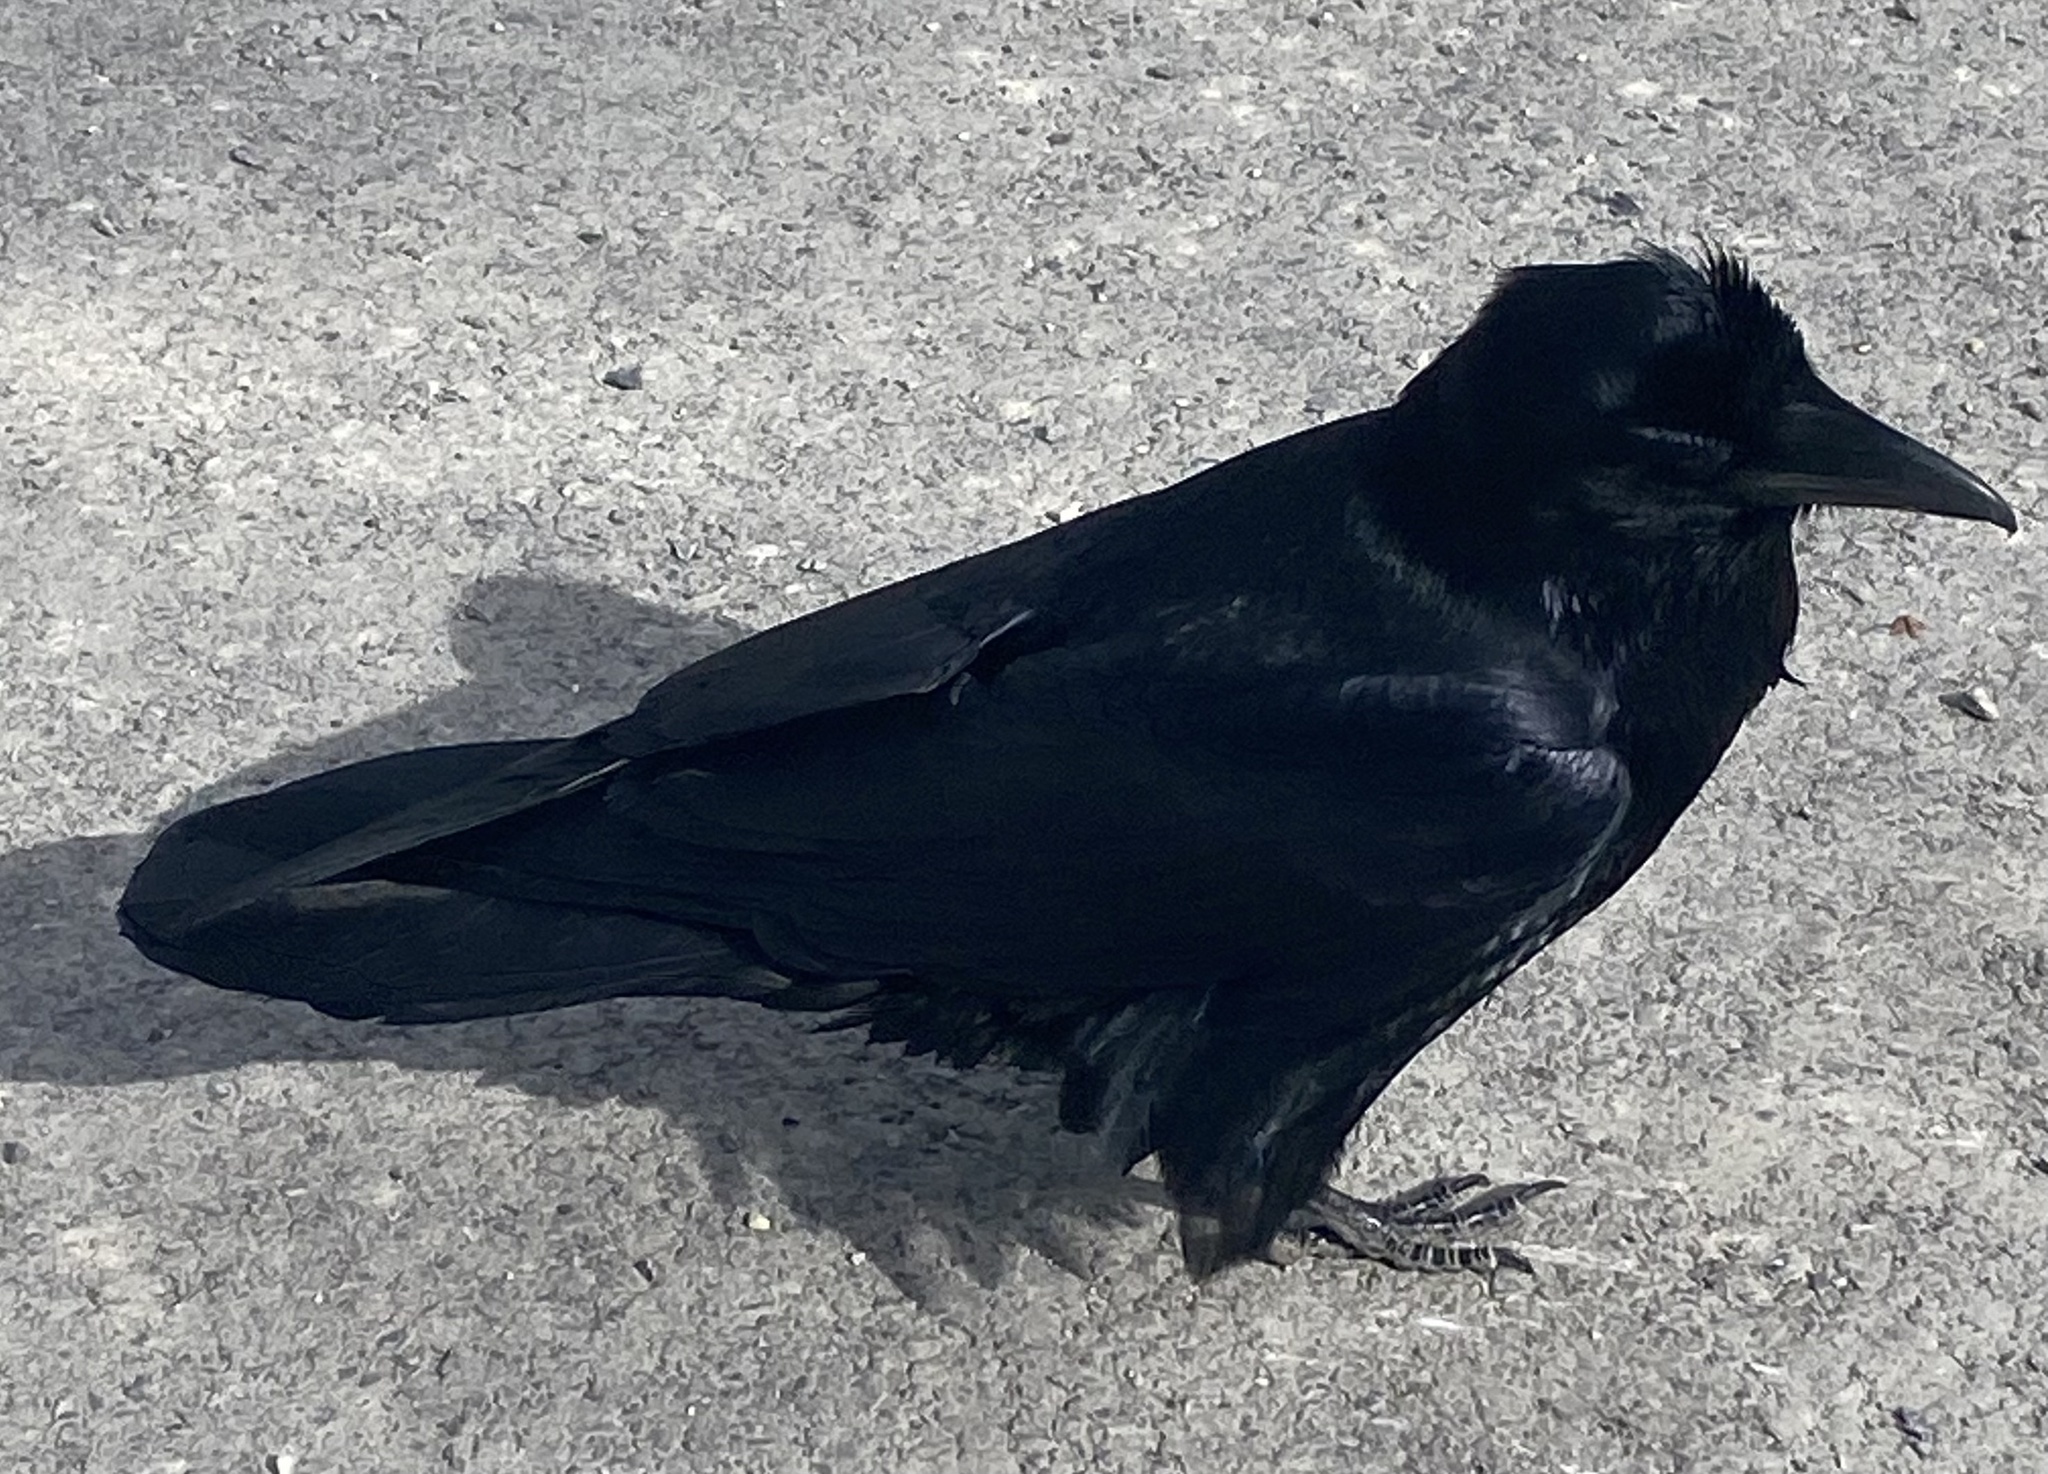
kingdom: Animalia
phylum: Chordata
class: Aves
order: Passeriformes
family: Corvidae
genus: Corvus
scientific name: Corvus corax
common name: Common raven
